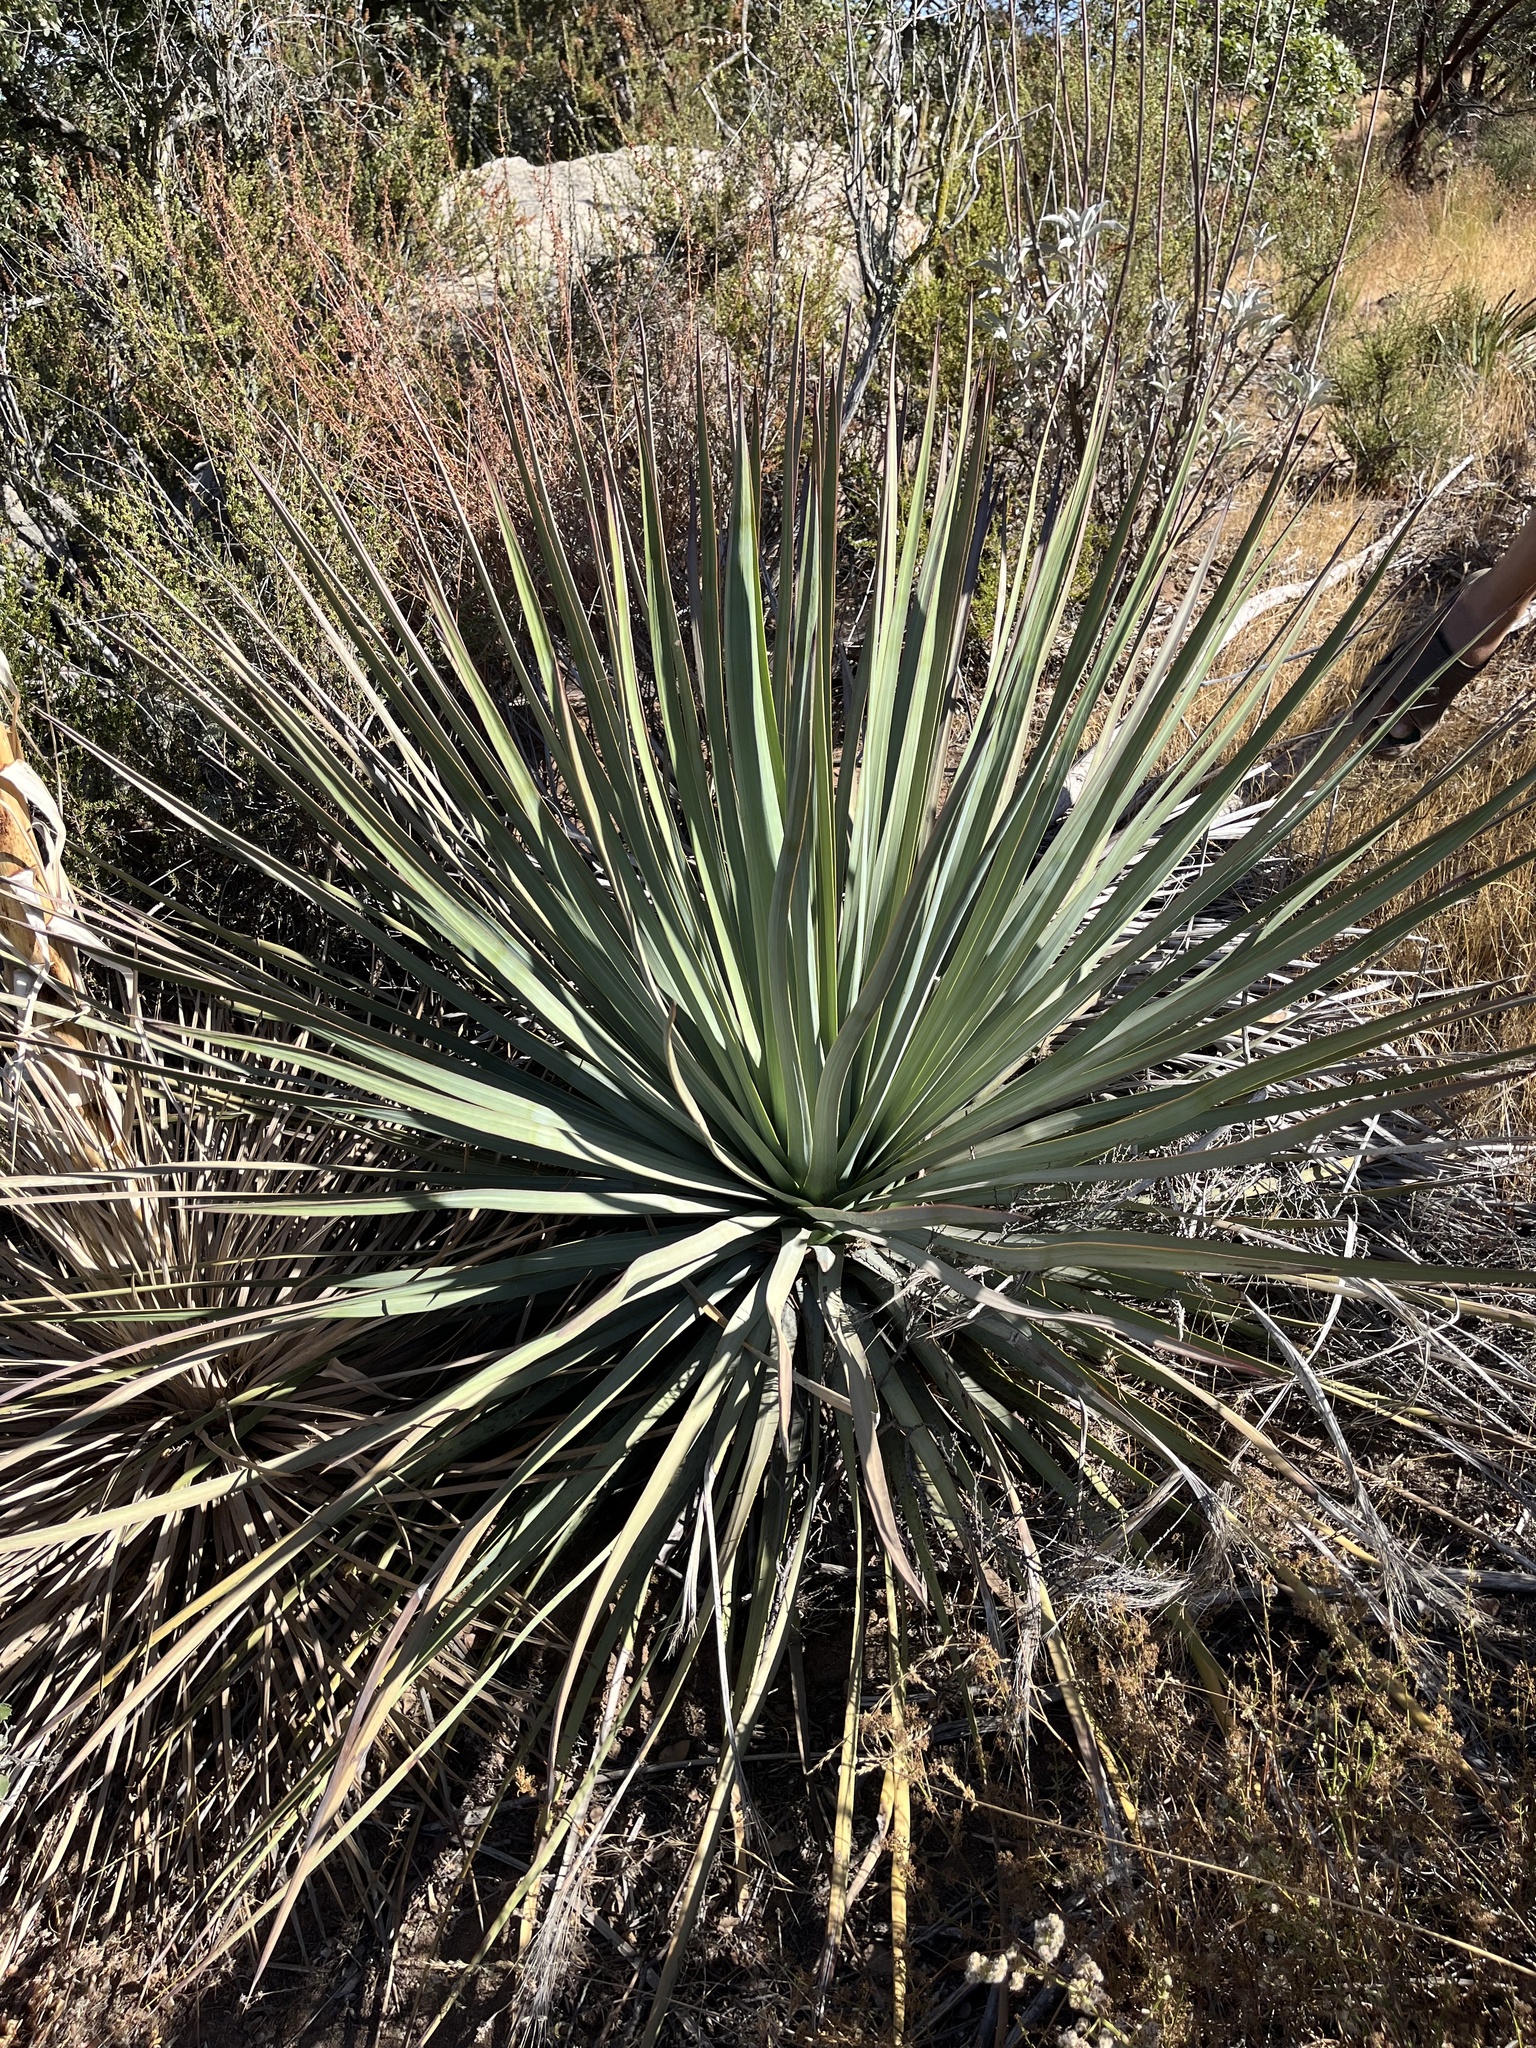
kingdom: Plantae
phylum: Tracheophyta
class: Liliopsida
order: Asparagales
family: Asparagaceae
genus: Hesperoyucca
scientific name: Hesperoyucca whipplei
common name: Our lord's-candle
